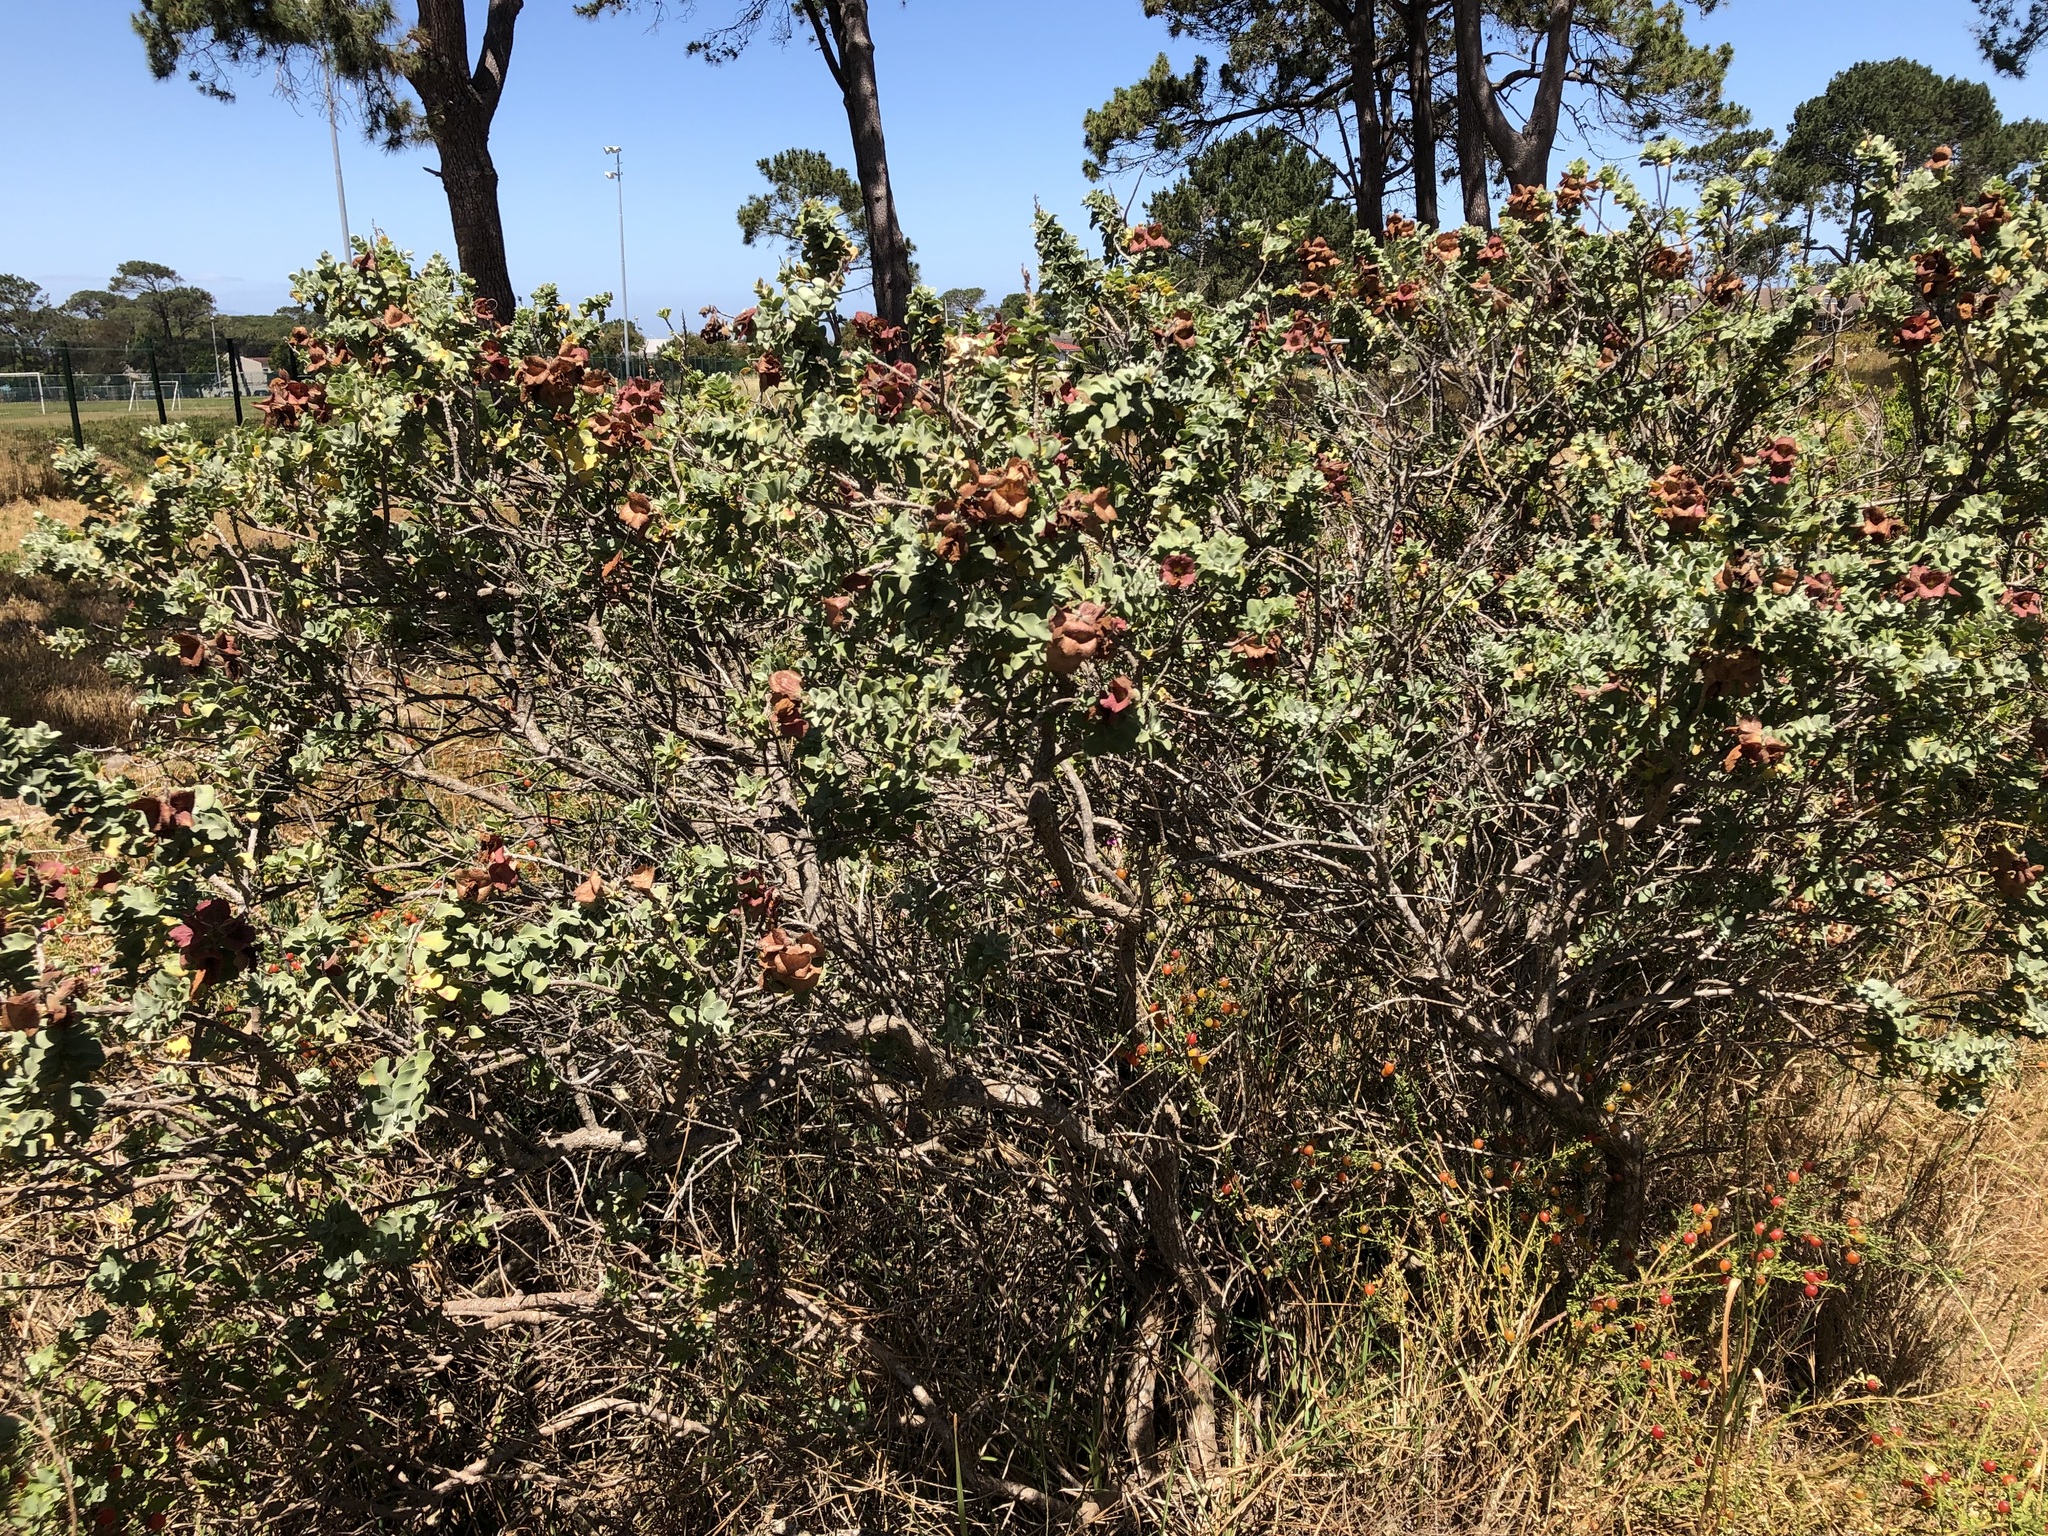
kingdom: Plantae
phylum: Tracheophyta
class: Magnoliopsida
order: Lamiales
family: Lamiaceae
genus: Salvia
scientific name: Salvia aurea
